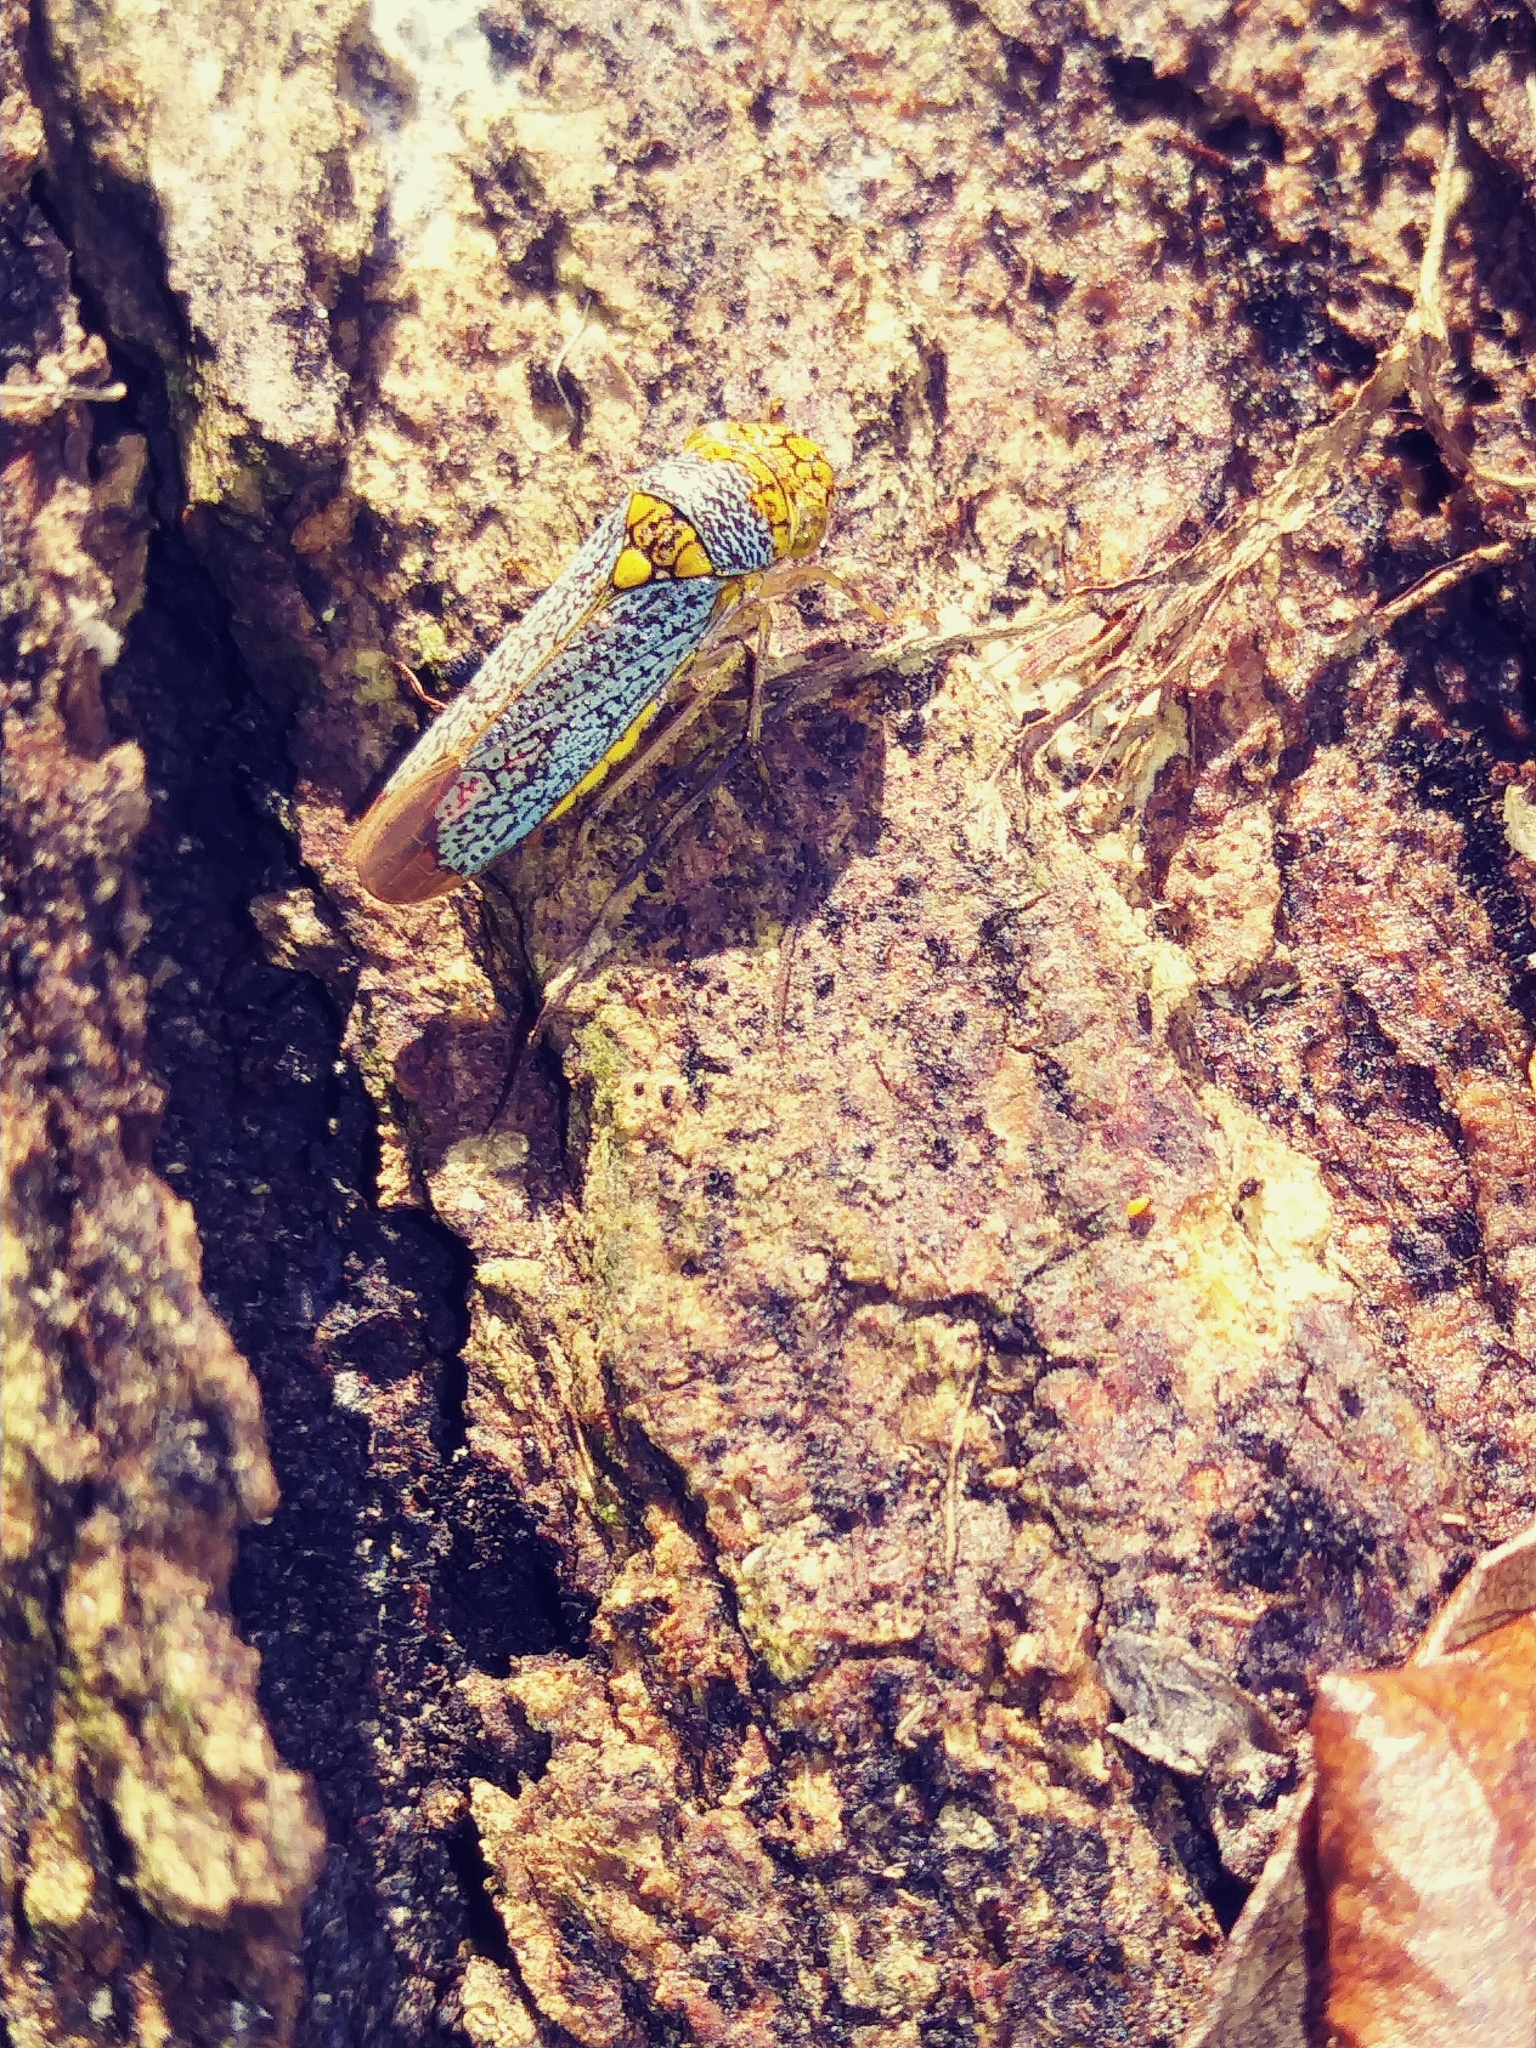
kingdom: Animalia
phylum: Arthropoda
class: Insecta
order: Hemiptera
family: Cicadellidae
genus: Oncometopia
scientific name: Oncometopia orbona
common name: Broad-headed sharpshooter
